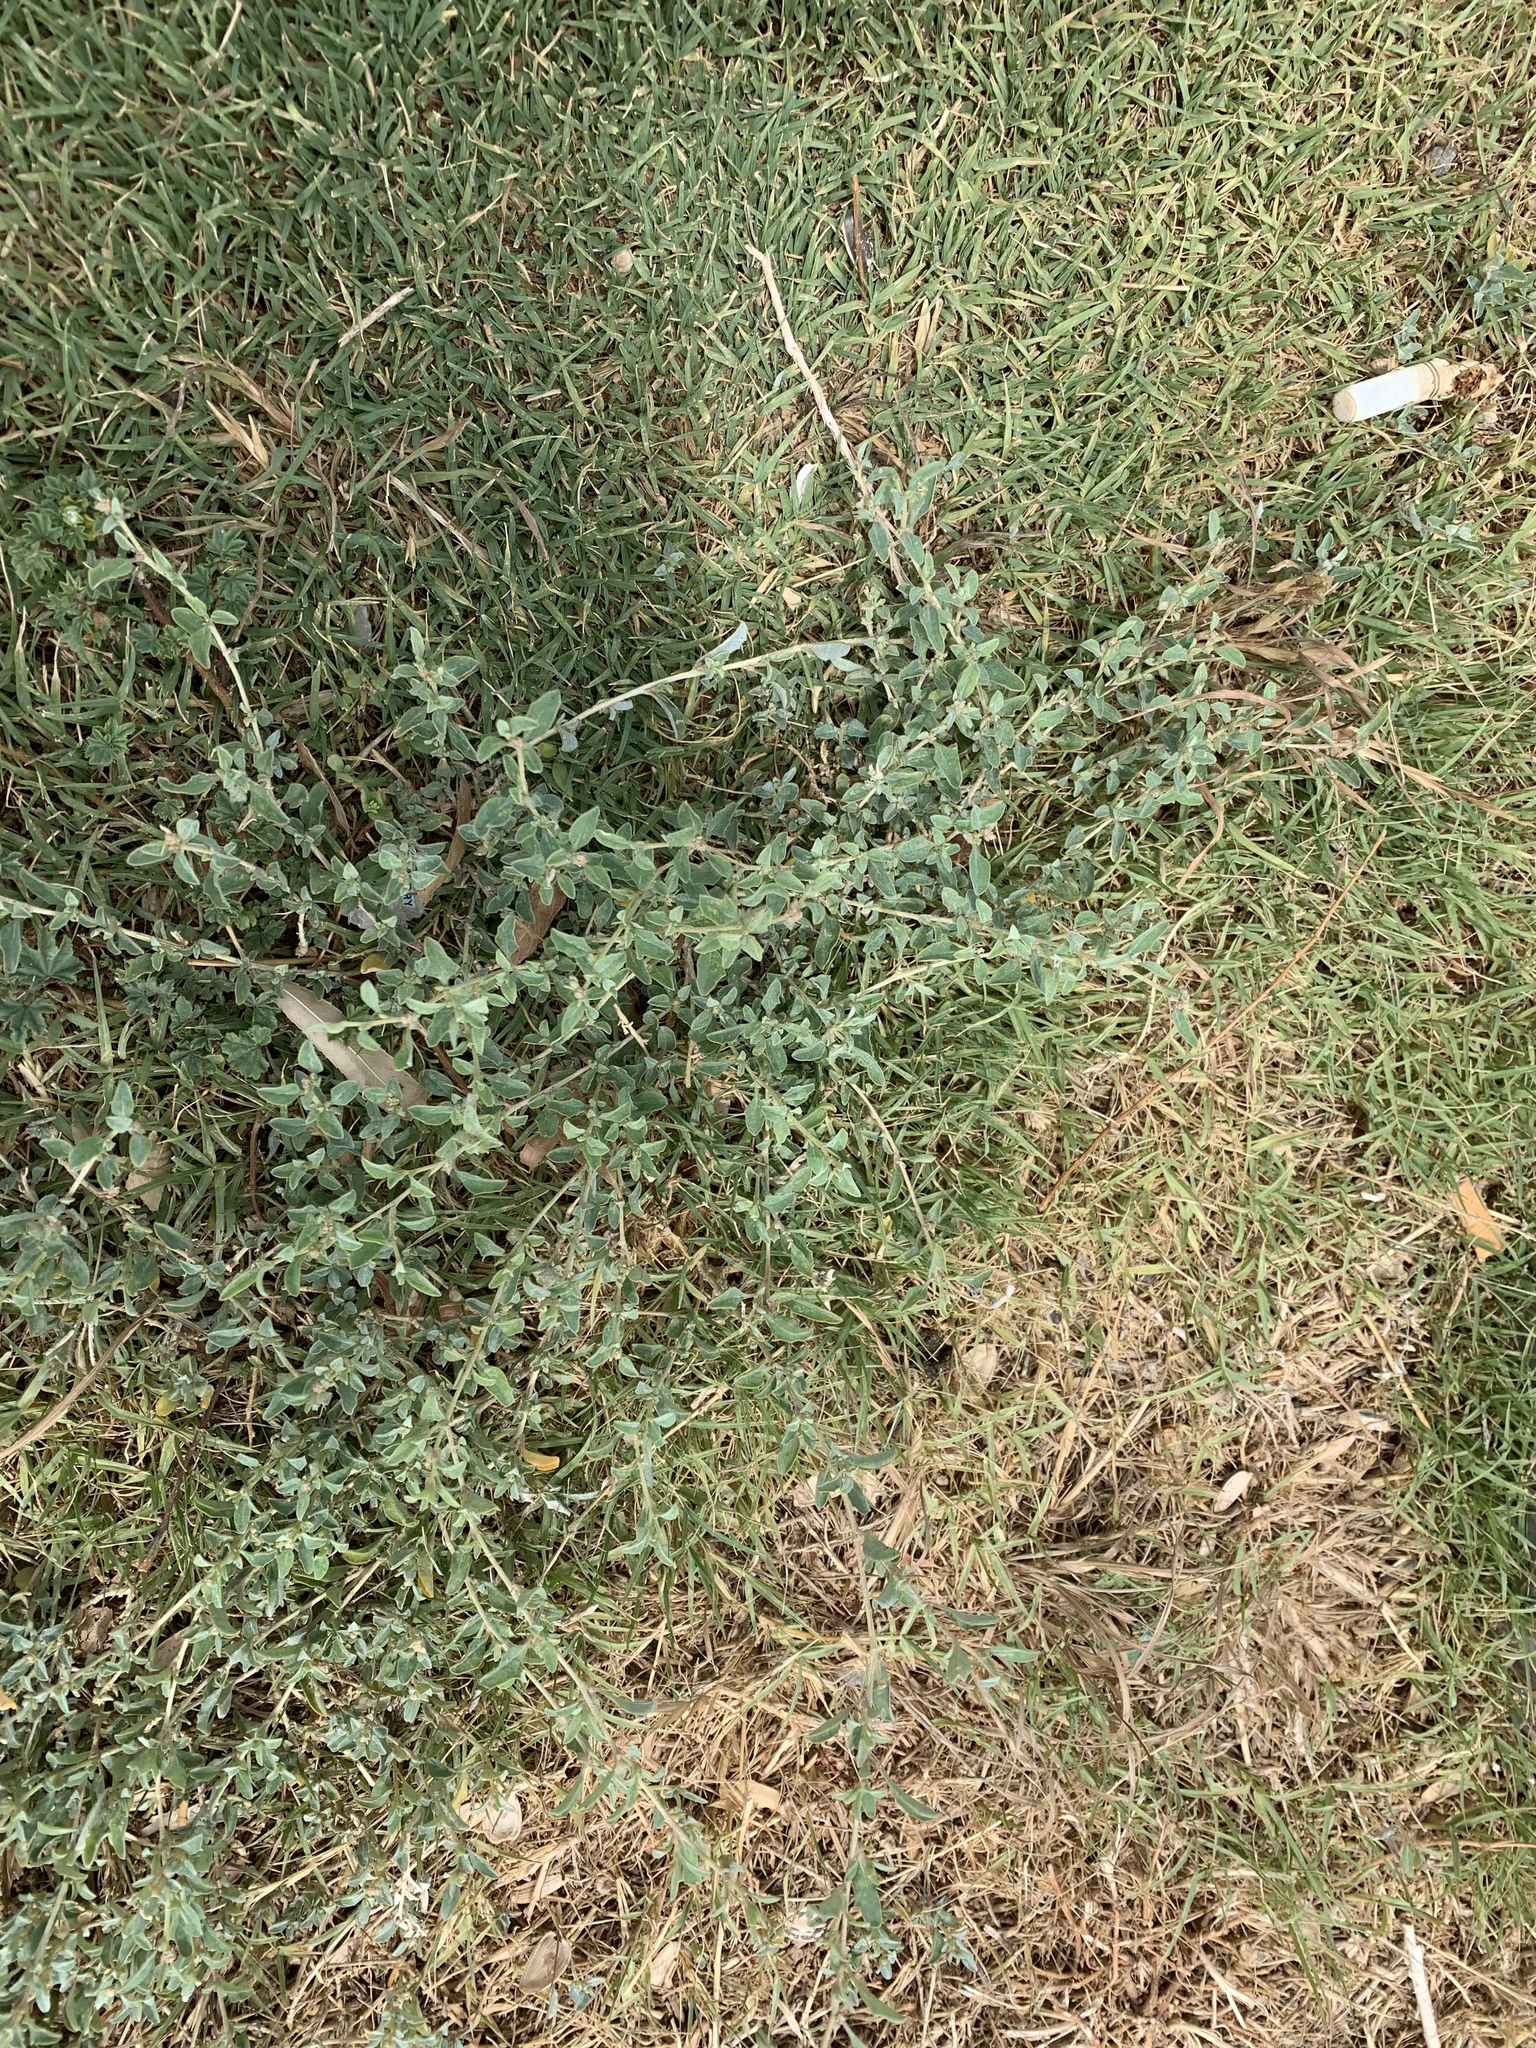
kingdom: Plantae
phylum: Tracheophyta
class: Magnoliopsida
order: Caryophyllales
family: Amaranthaceae
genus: Atriplex
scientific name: Atriplex semibaccata
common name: Australian saltbush
